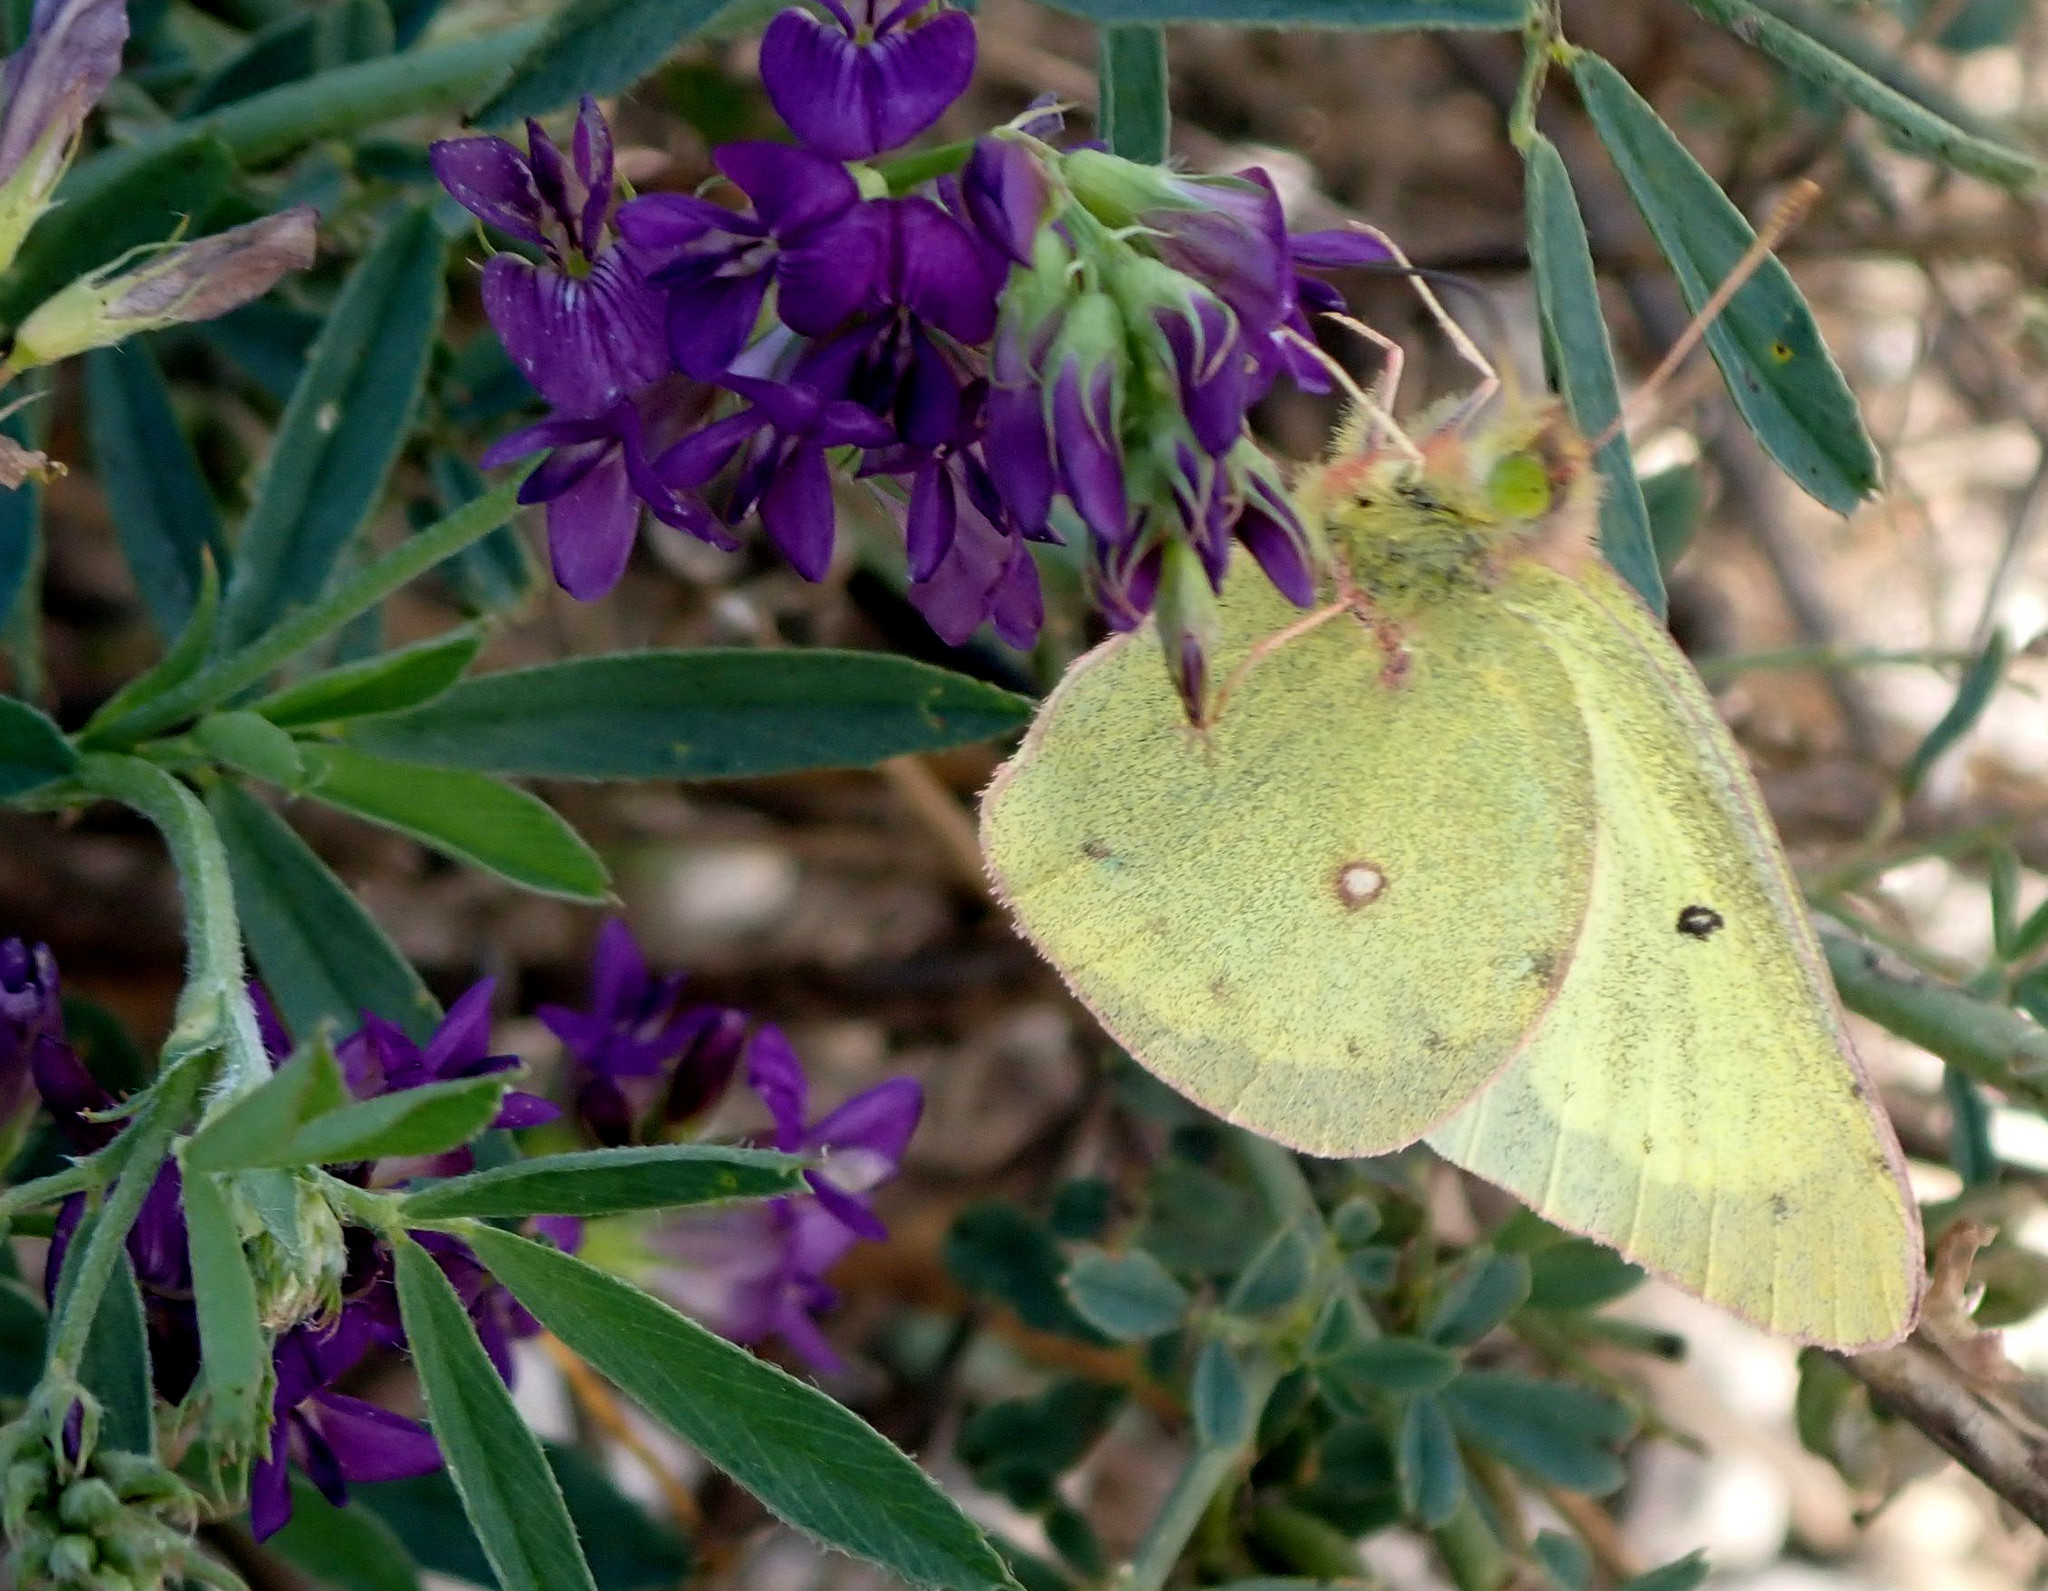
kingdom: Animalia
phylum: Arthropoda
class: Insecta
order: Lepidoptera
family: Pieridae
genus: Colias
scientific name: Colias philodice
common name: Clouded sulphur
